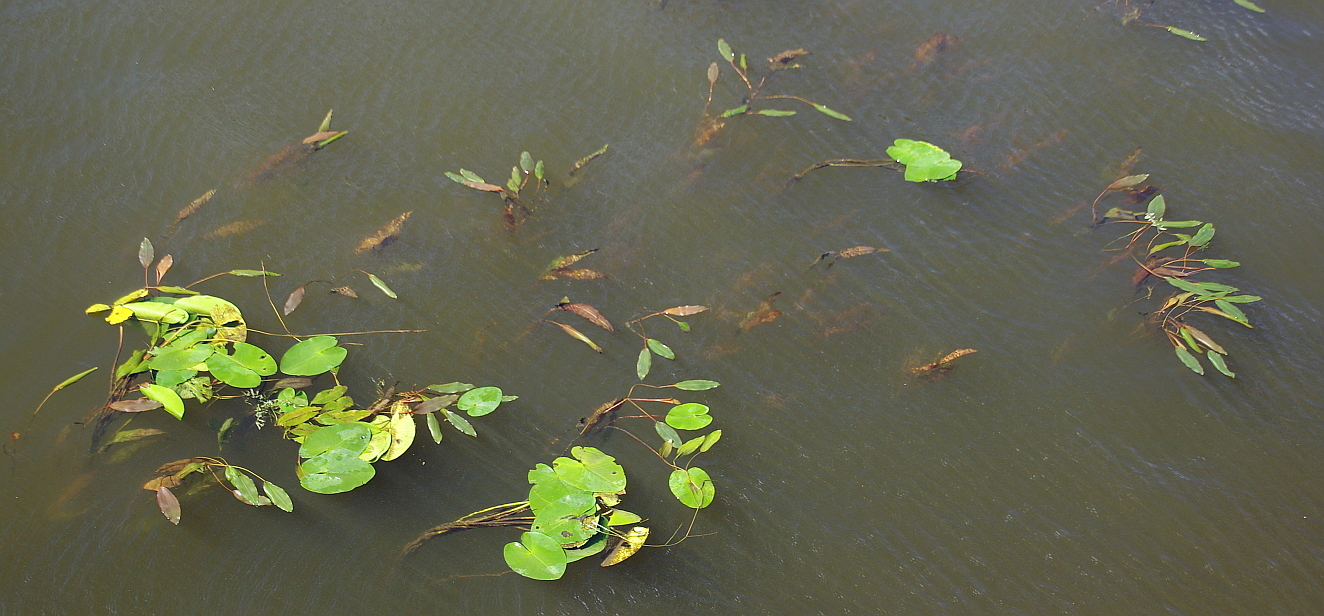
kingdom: Plantae
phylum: Tracheophyta
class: Liliopsida
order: Alismatales
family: Potamogetonaceae
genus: Potamogeton
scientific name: Potamogeton nodosus
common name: Loddon pondweed
